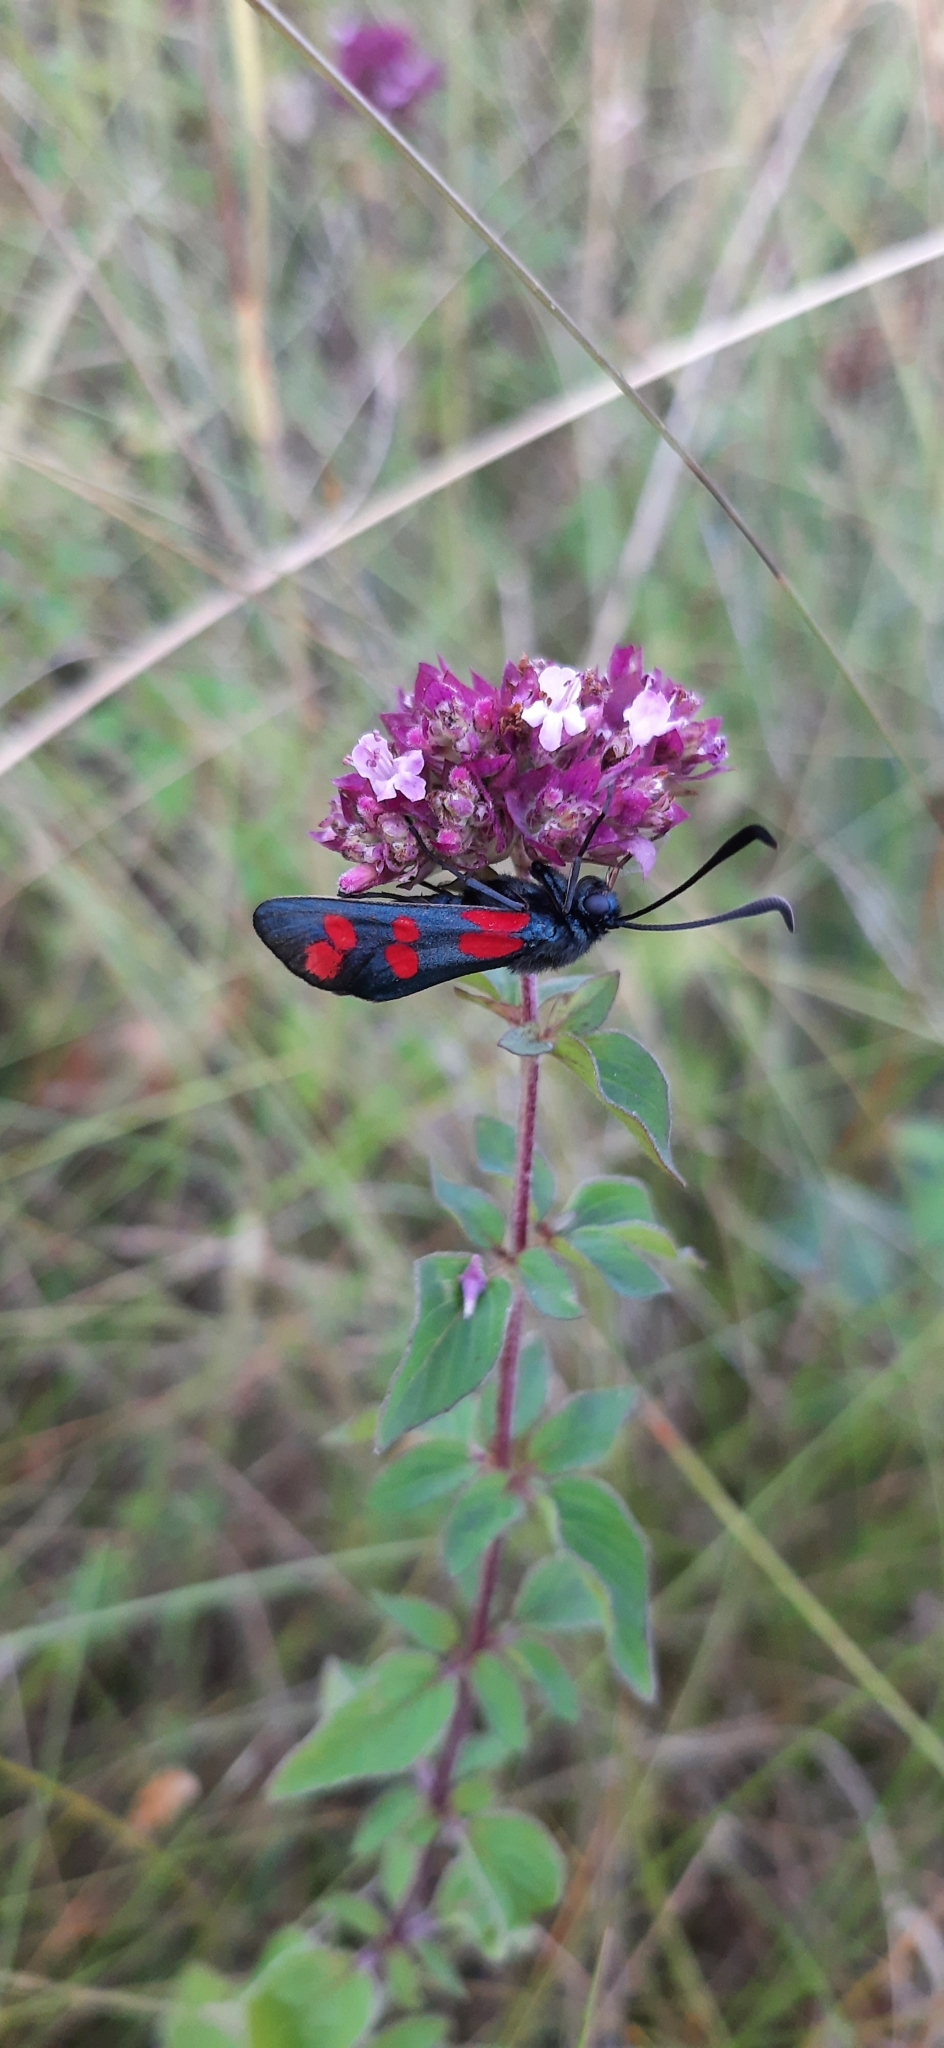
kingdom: Animalia
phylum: Arthropoda
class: Insecta
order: Lepidoptera
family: Zygaenidae
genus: Zygaena
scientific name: Zygaena filipendulae
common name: Six-spot burnet
